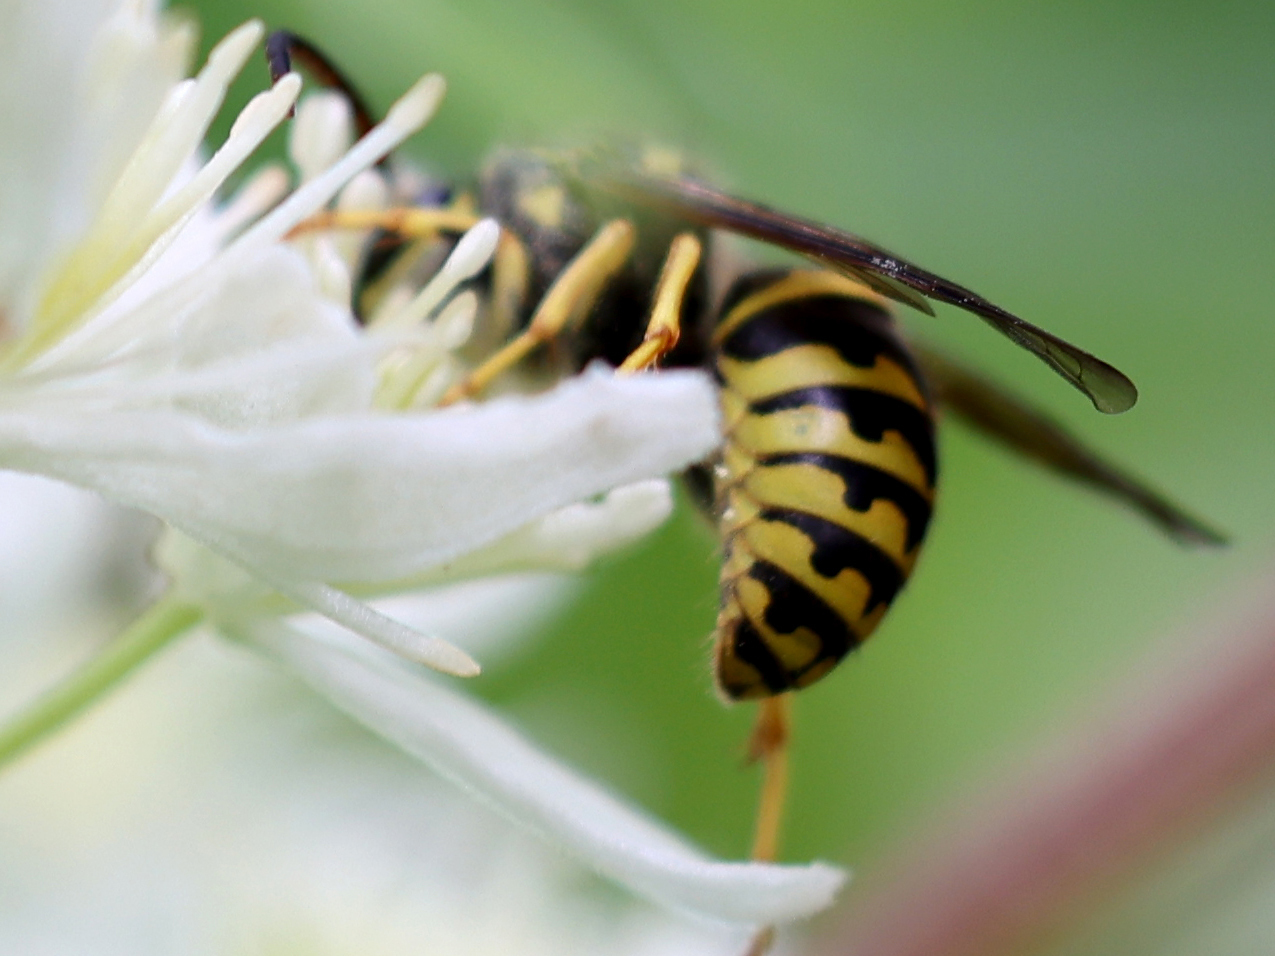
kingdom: Animalia
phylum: Arthropoda
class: Insecta
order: Hymenoptera
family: Vespidae
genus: Dolichovespula
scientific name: Dolichovespula arenaria
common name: Aerial yellowjacket
